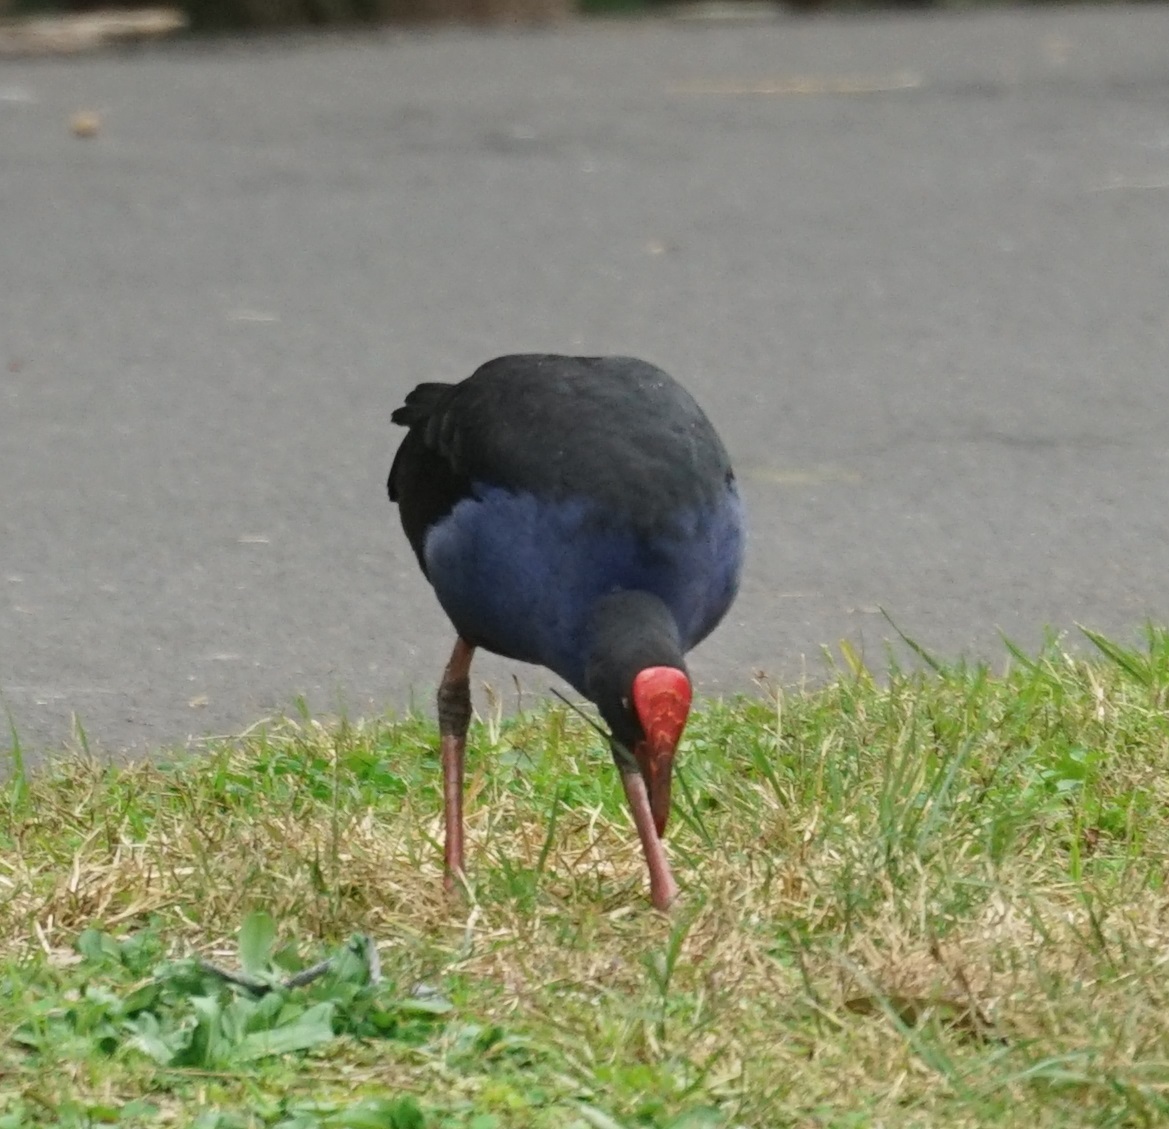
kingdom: Animalia
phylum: Chordata
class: Aves
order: Gruiformes
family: Rallidae
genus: Porphyrio
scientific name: Porphyrio melanotus
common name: Australasian swamphen
